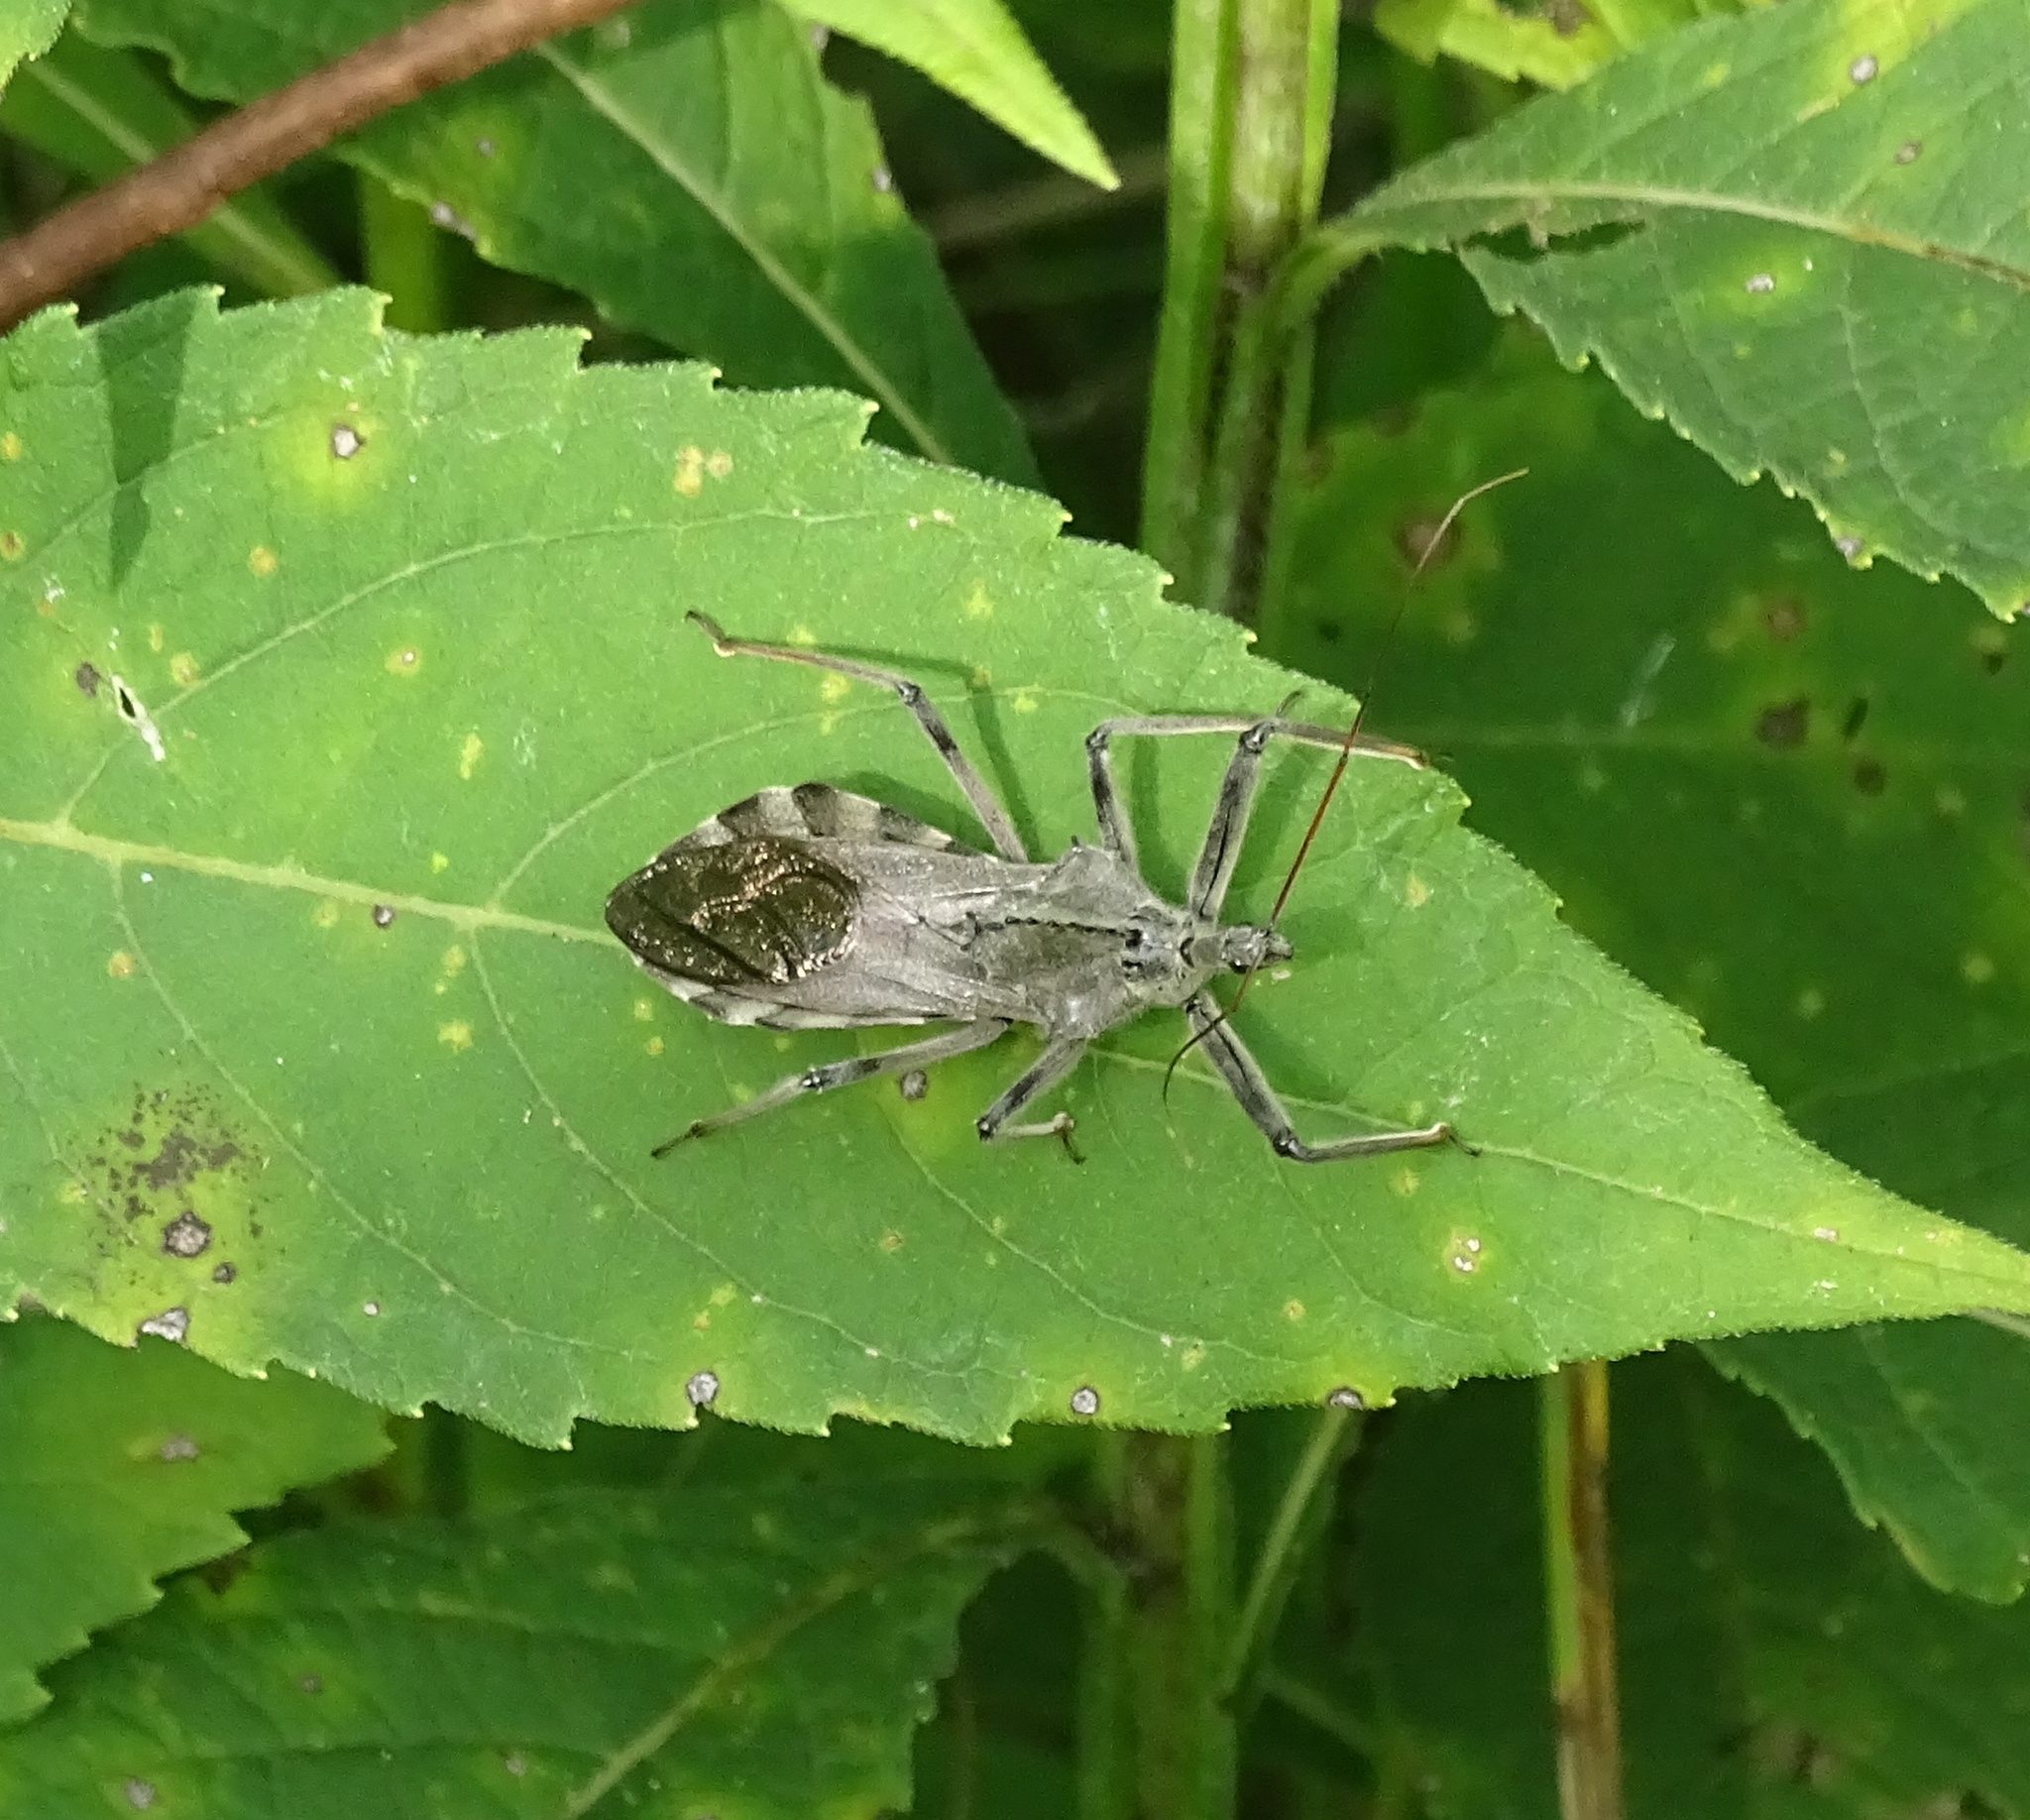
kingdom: Animalia
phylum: Arthropoda
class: Insecta
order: Hemiptera
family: Reduviidae
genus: Arilus
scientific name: Arilus cristatus
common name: North american wheel bug
